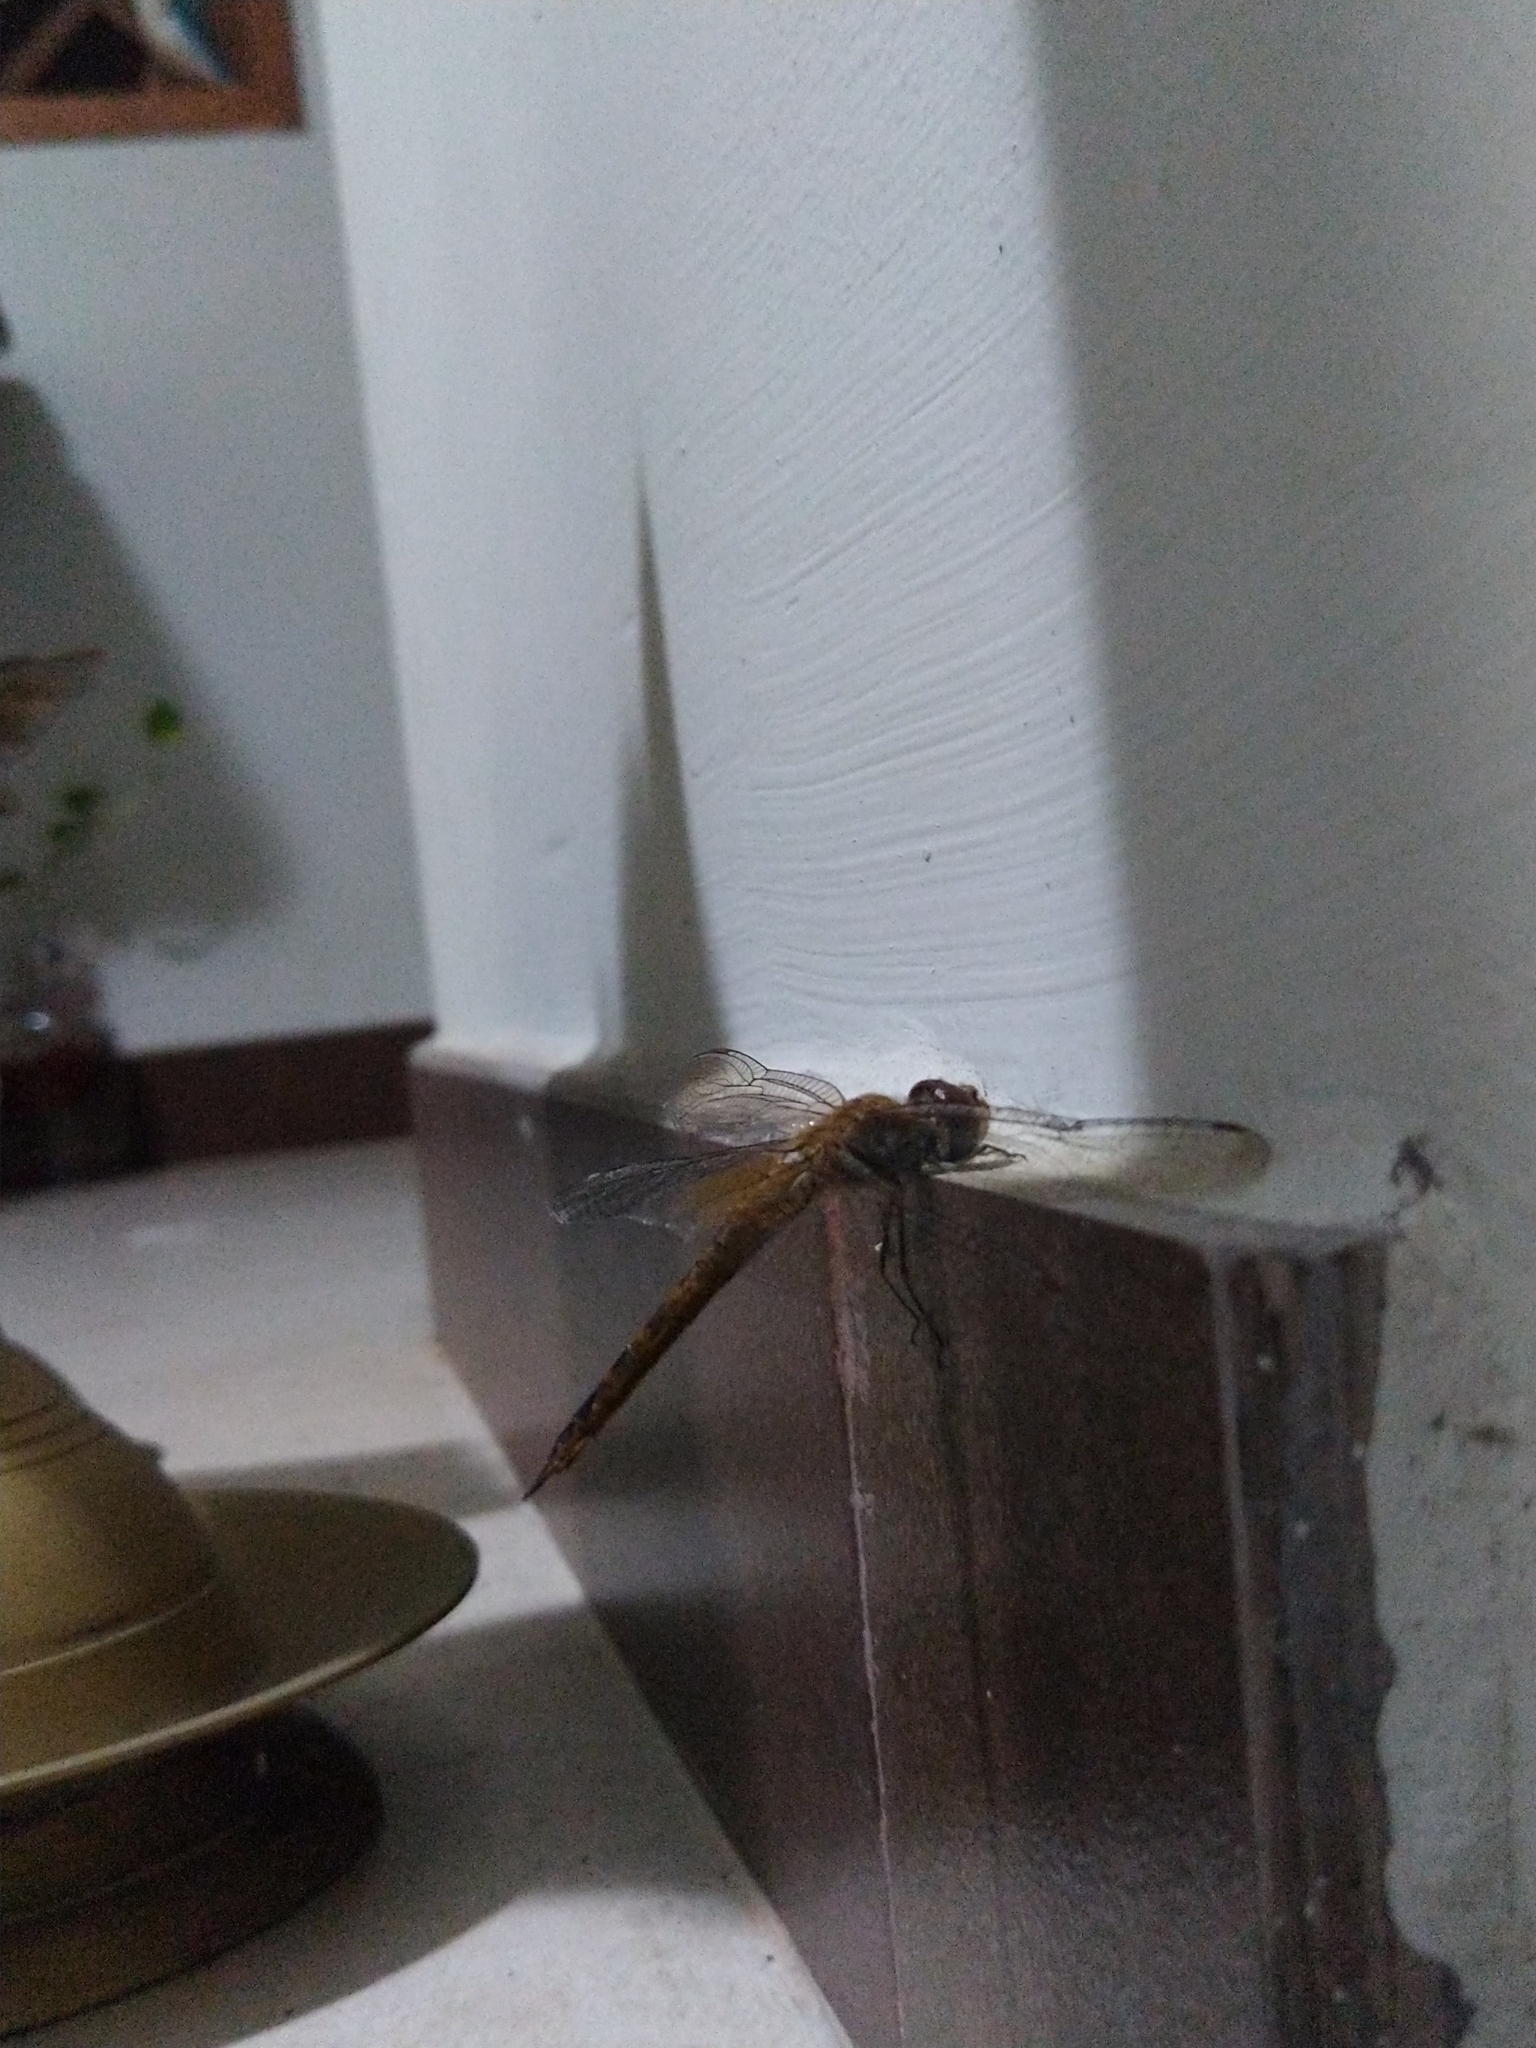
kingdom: Animalia
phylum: Arthropoda
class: Insecta
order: Odonata
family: Libellulidae
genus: Pantala
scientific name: Pantala flavescens
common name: Wandering glider
